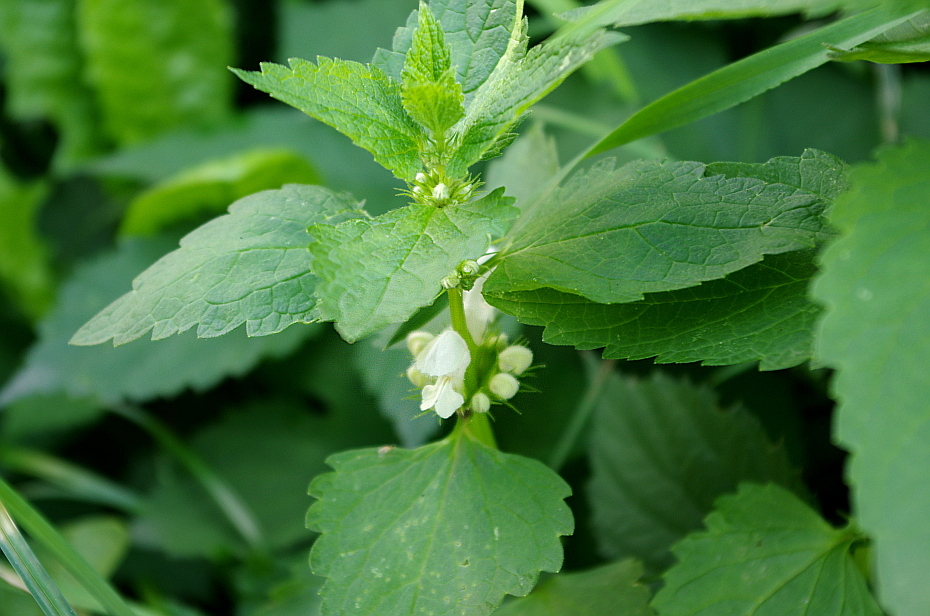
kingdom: Plantae
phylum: Tracheophyta
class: Magnoliopsida
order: Lamiales
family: Lamiaceae
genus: Lamium
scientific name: Lamium album
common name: White dead-nettle
